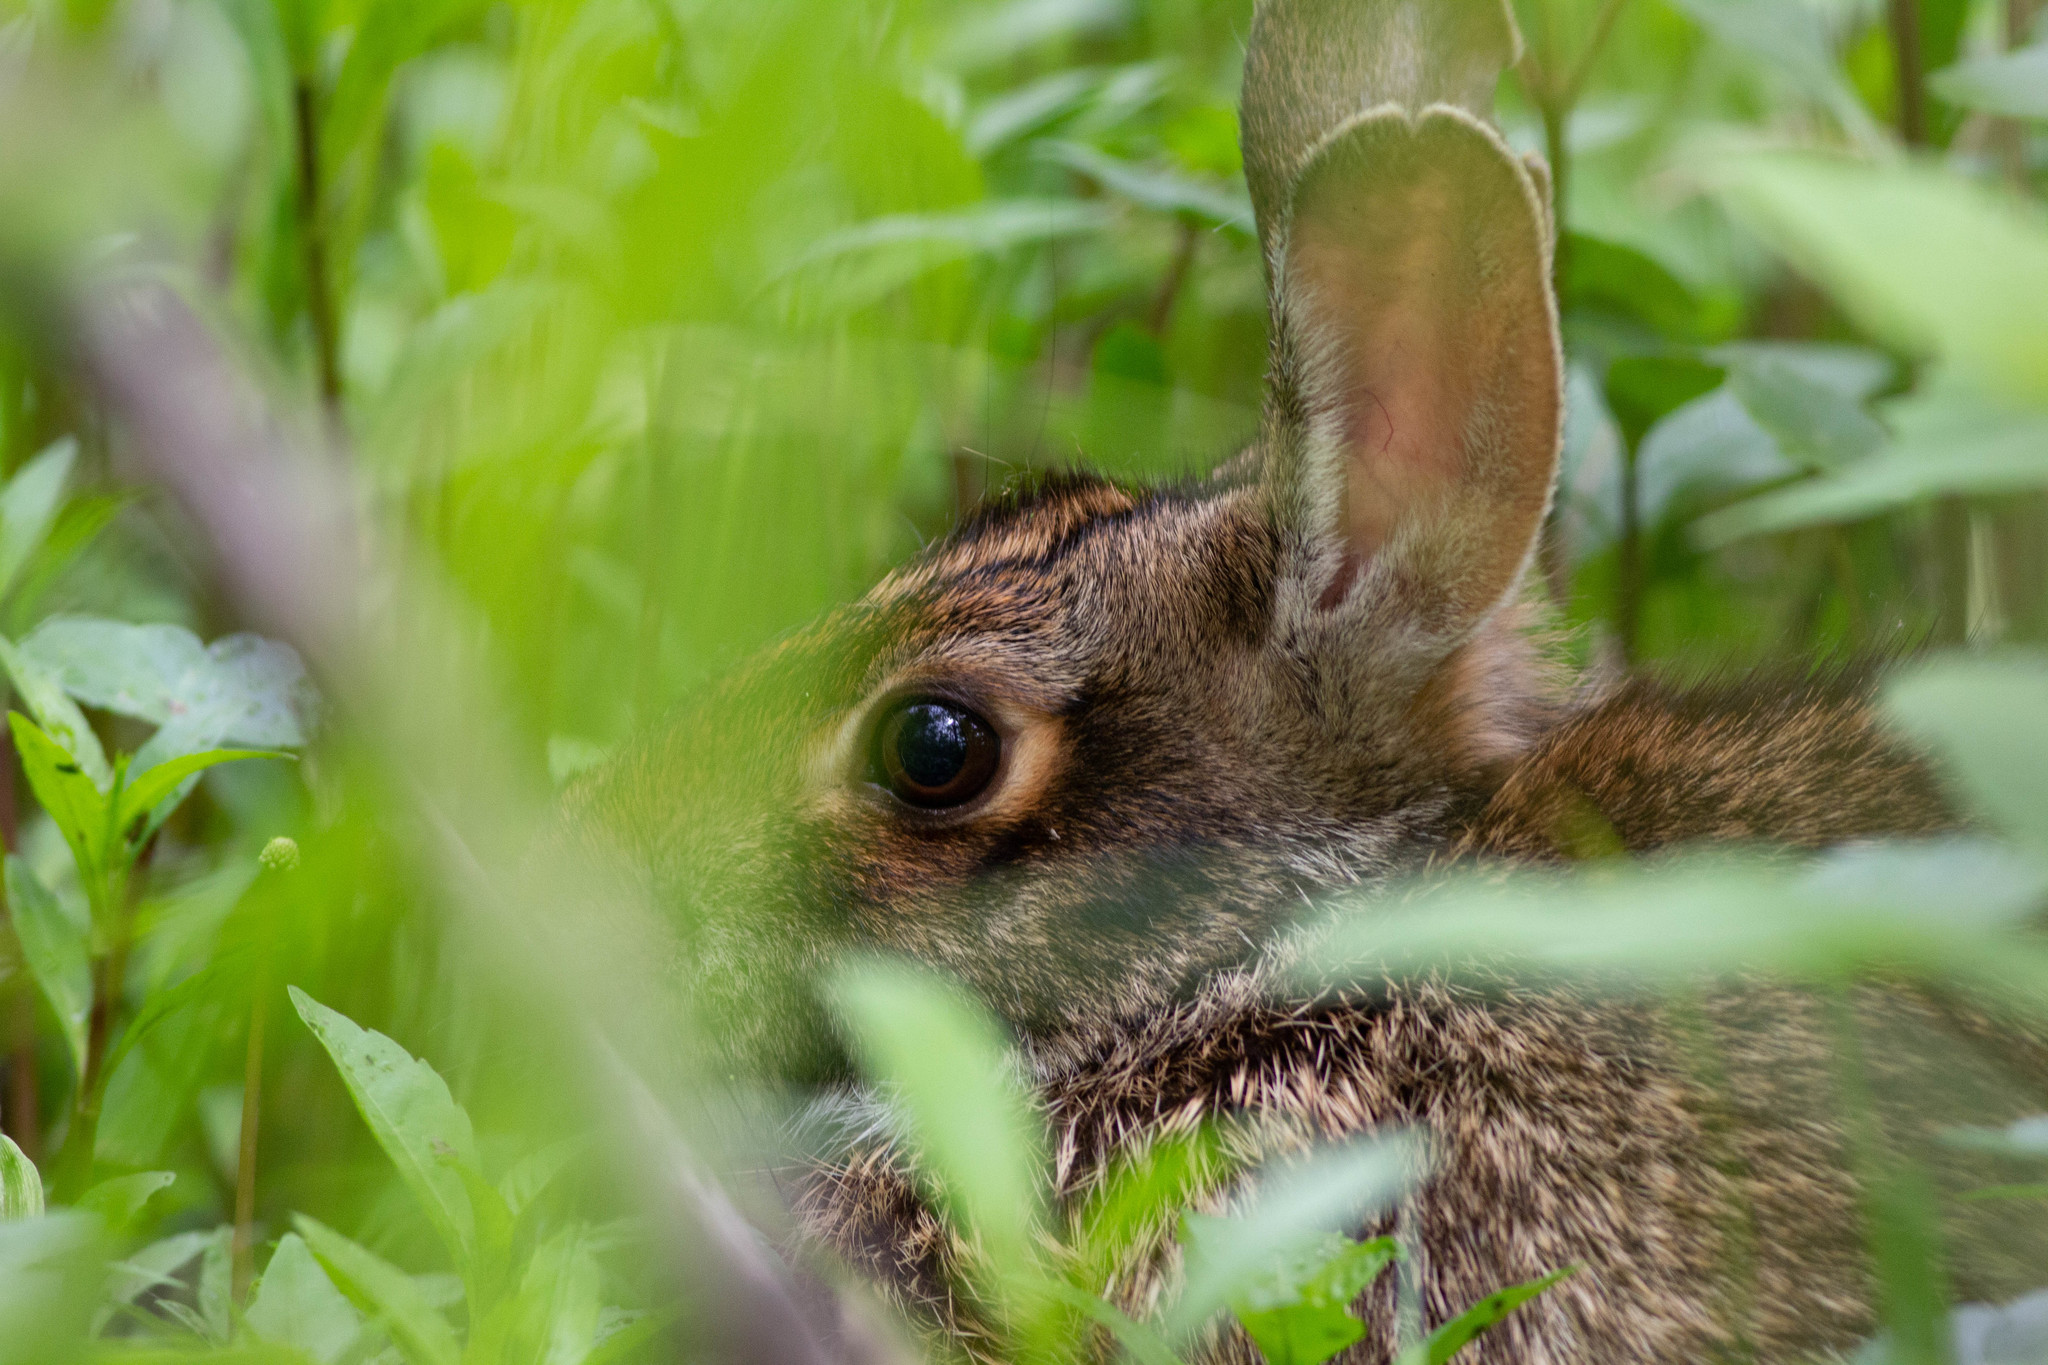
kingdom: Animalia
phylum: Chordata
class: Mammalia
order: Lagomorpha
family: Leporidae
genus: Sylvilagus
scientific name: Sylvilagus aquaticus
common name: Swamp rabbit
